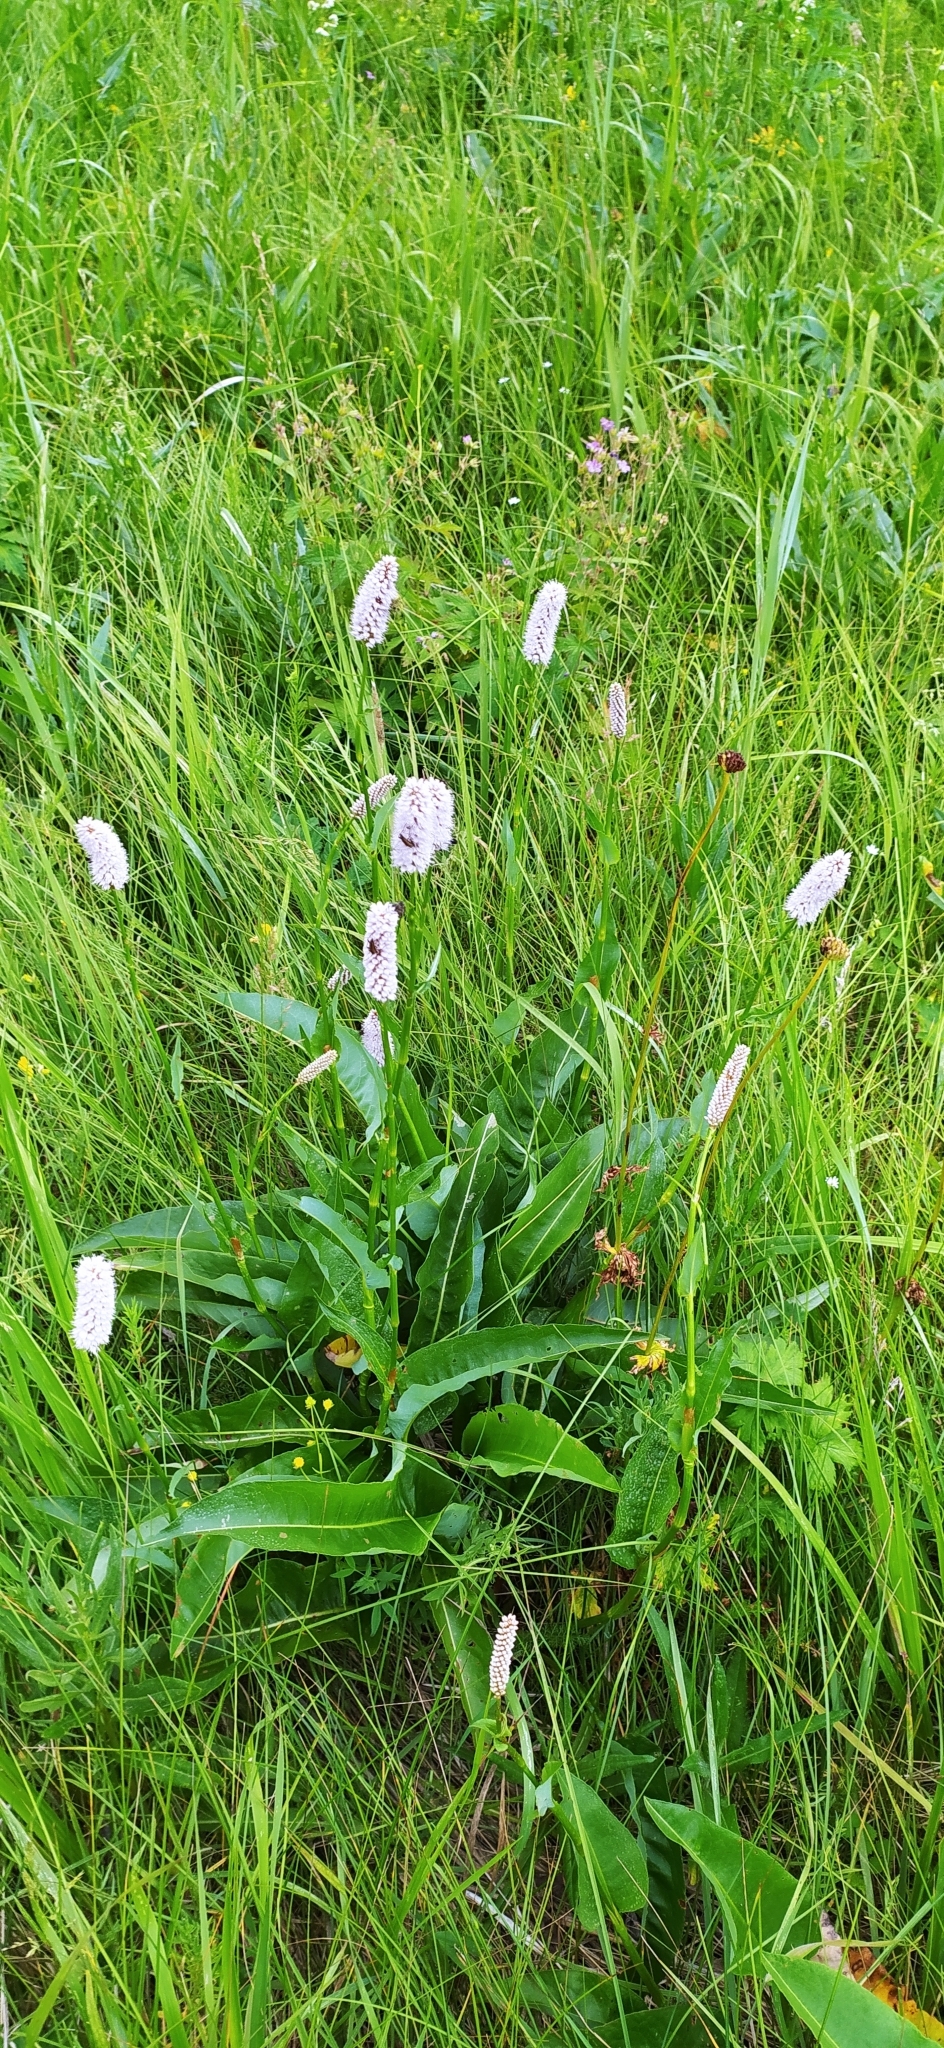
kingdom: Plantae
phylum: Tracheophyta
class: Magnoliopsida
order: Caryophyllales
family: Polygonaceae
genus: Bistorta
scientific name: Bistorta officinalis
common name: Common bistort
